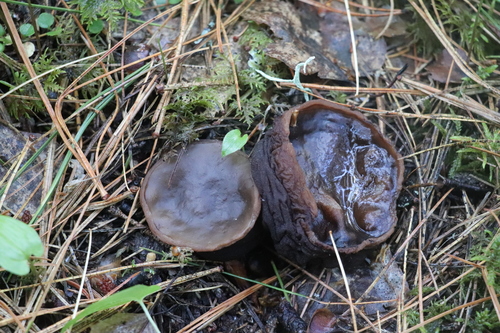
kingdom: Fungi
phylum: Ascomycota
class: Pezizomycetes
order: Pezizales
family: Sarcosomataceae
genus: Sarcosoma
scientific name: Sarcosoma globosum
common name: Charred-pancake cup
